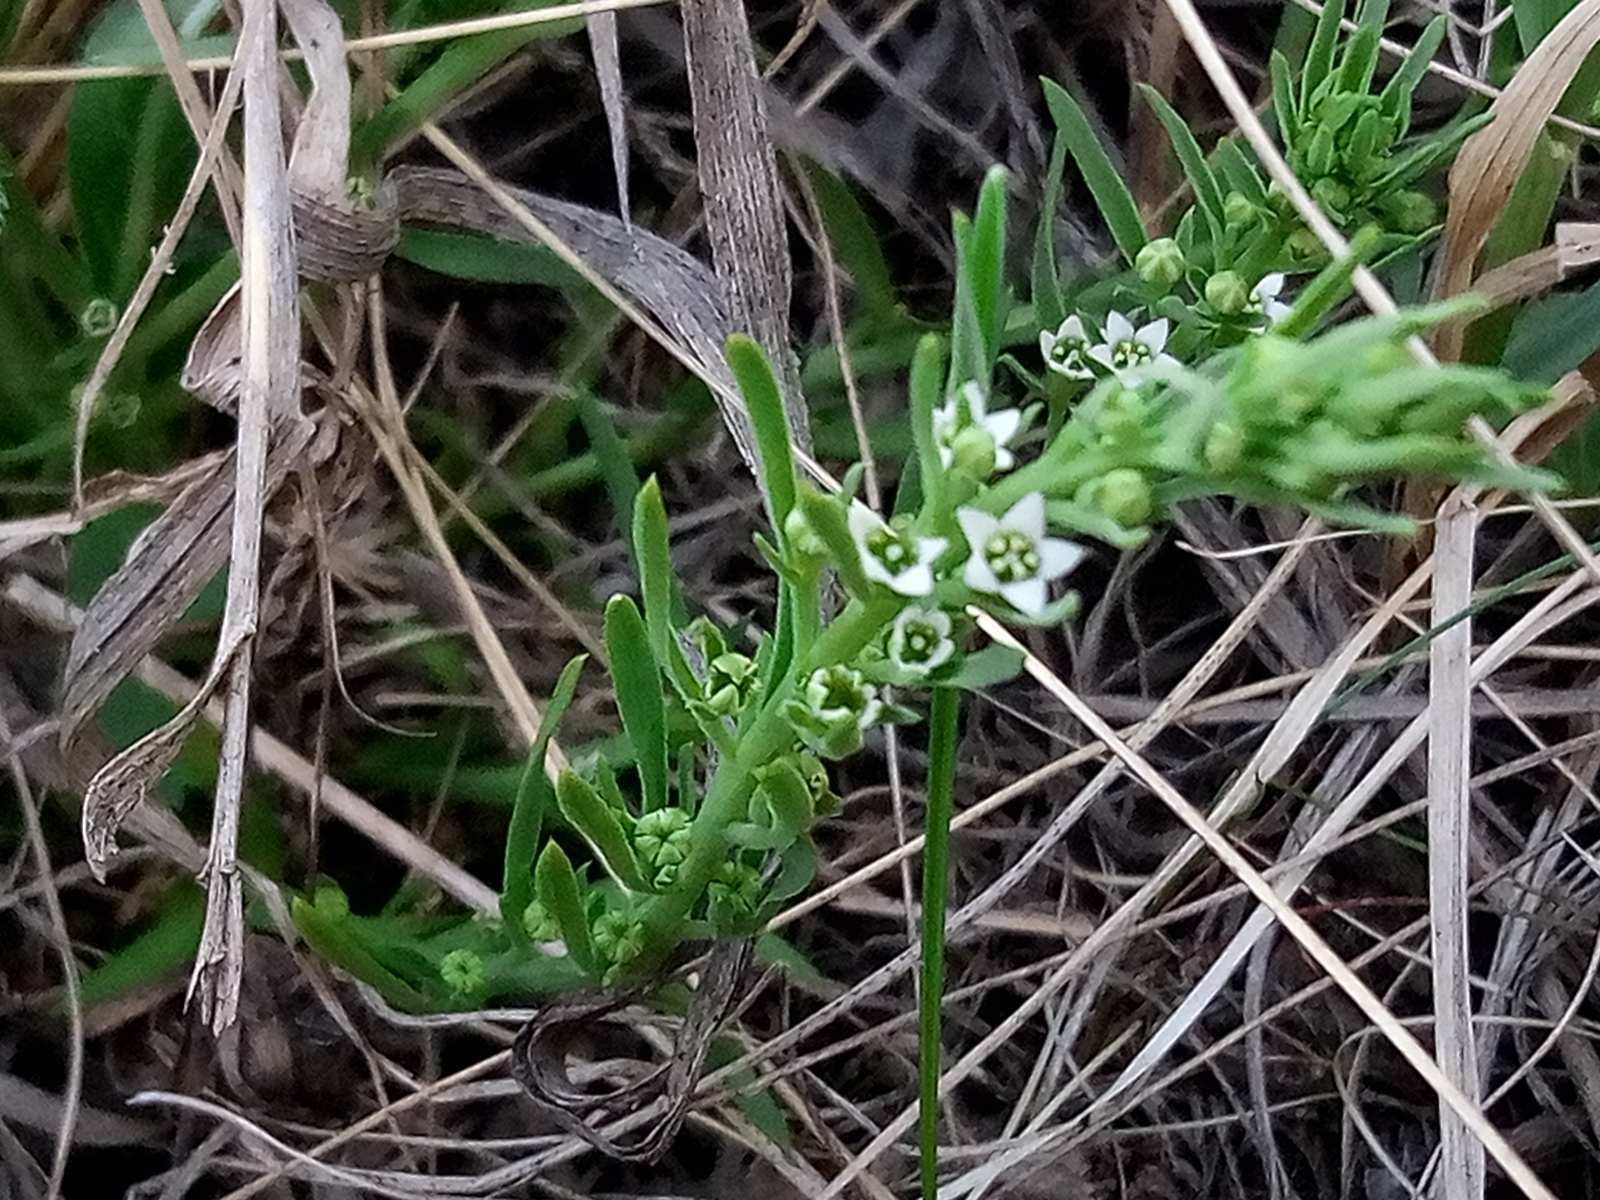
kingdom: Plantae
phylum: Tracheophyta
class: Magnoliopsida
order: Santalales
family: Thesiaceae
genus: Thesium
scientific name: Thesium ramosum
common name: Field thesium
